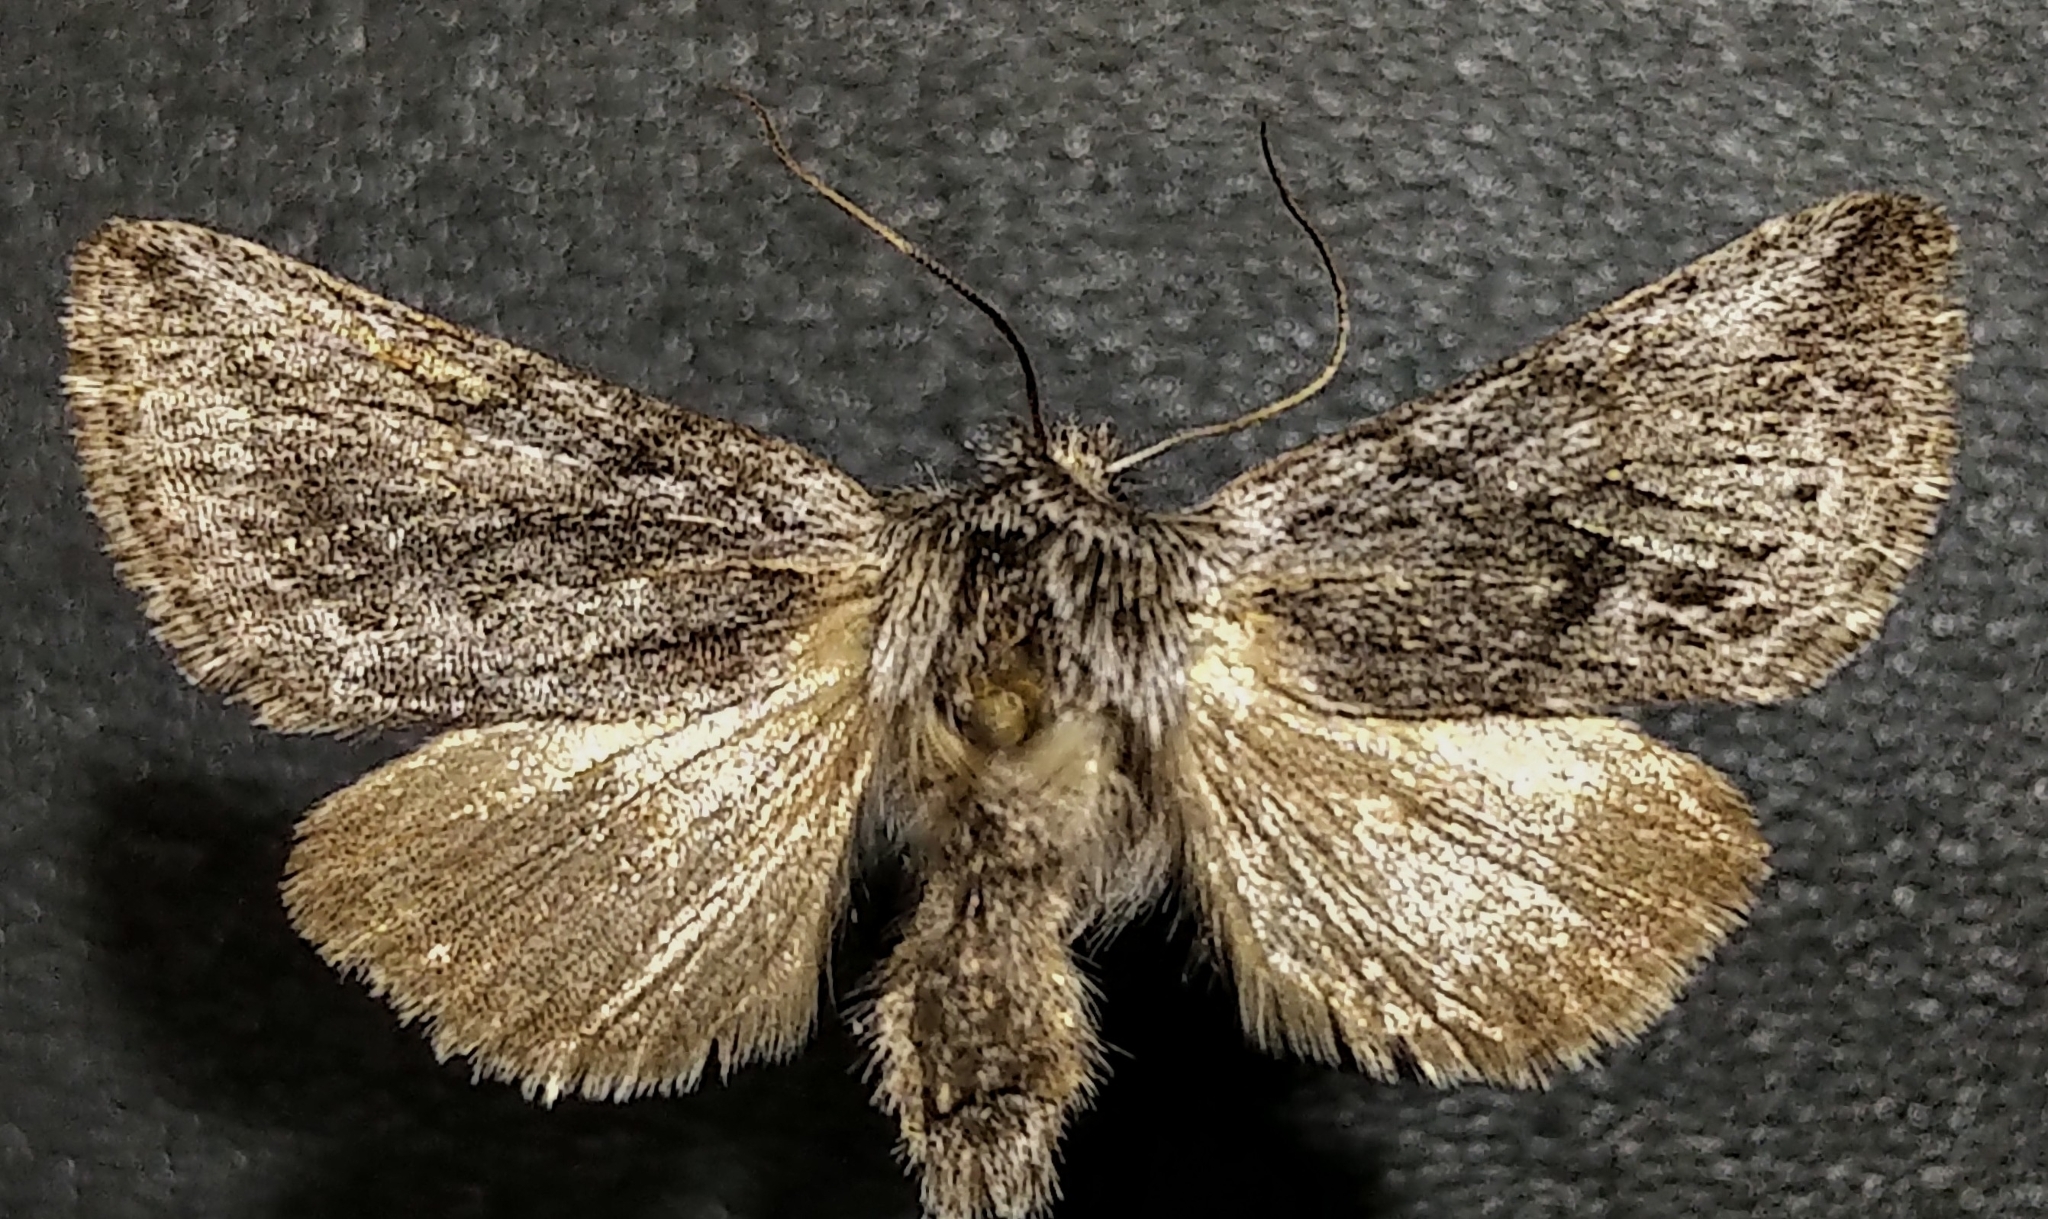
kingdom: Animalia
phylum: Arthropoda
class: Insecta
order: Lepidoptera
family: Noctuidae
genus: Pleromelloida
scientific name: Pleromelloida bonuscula
